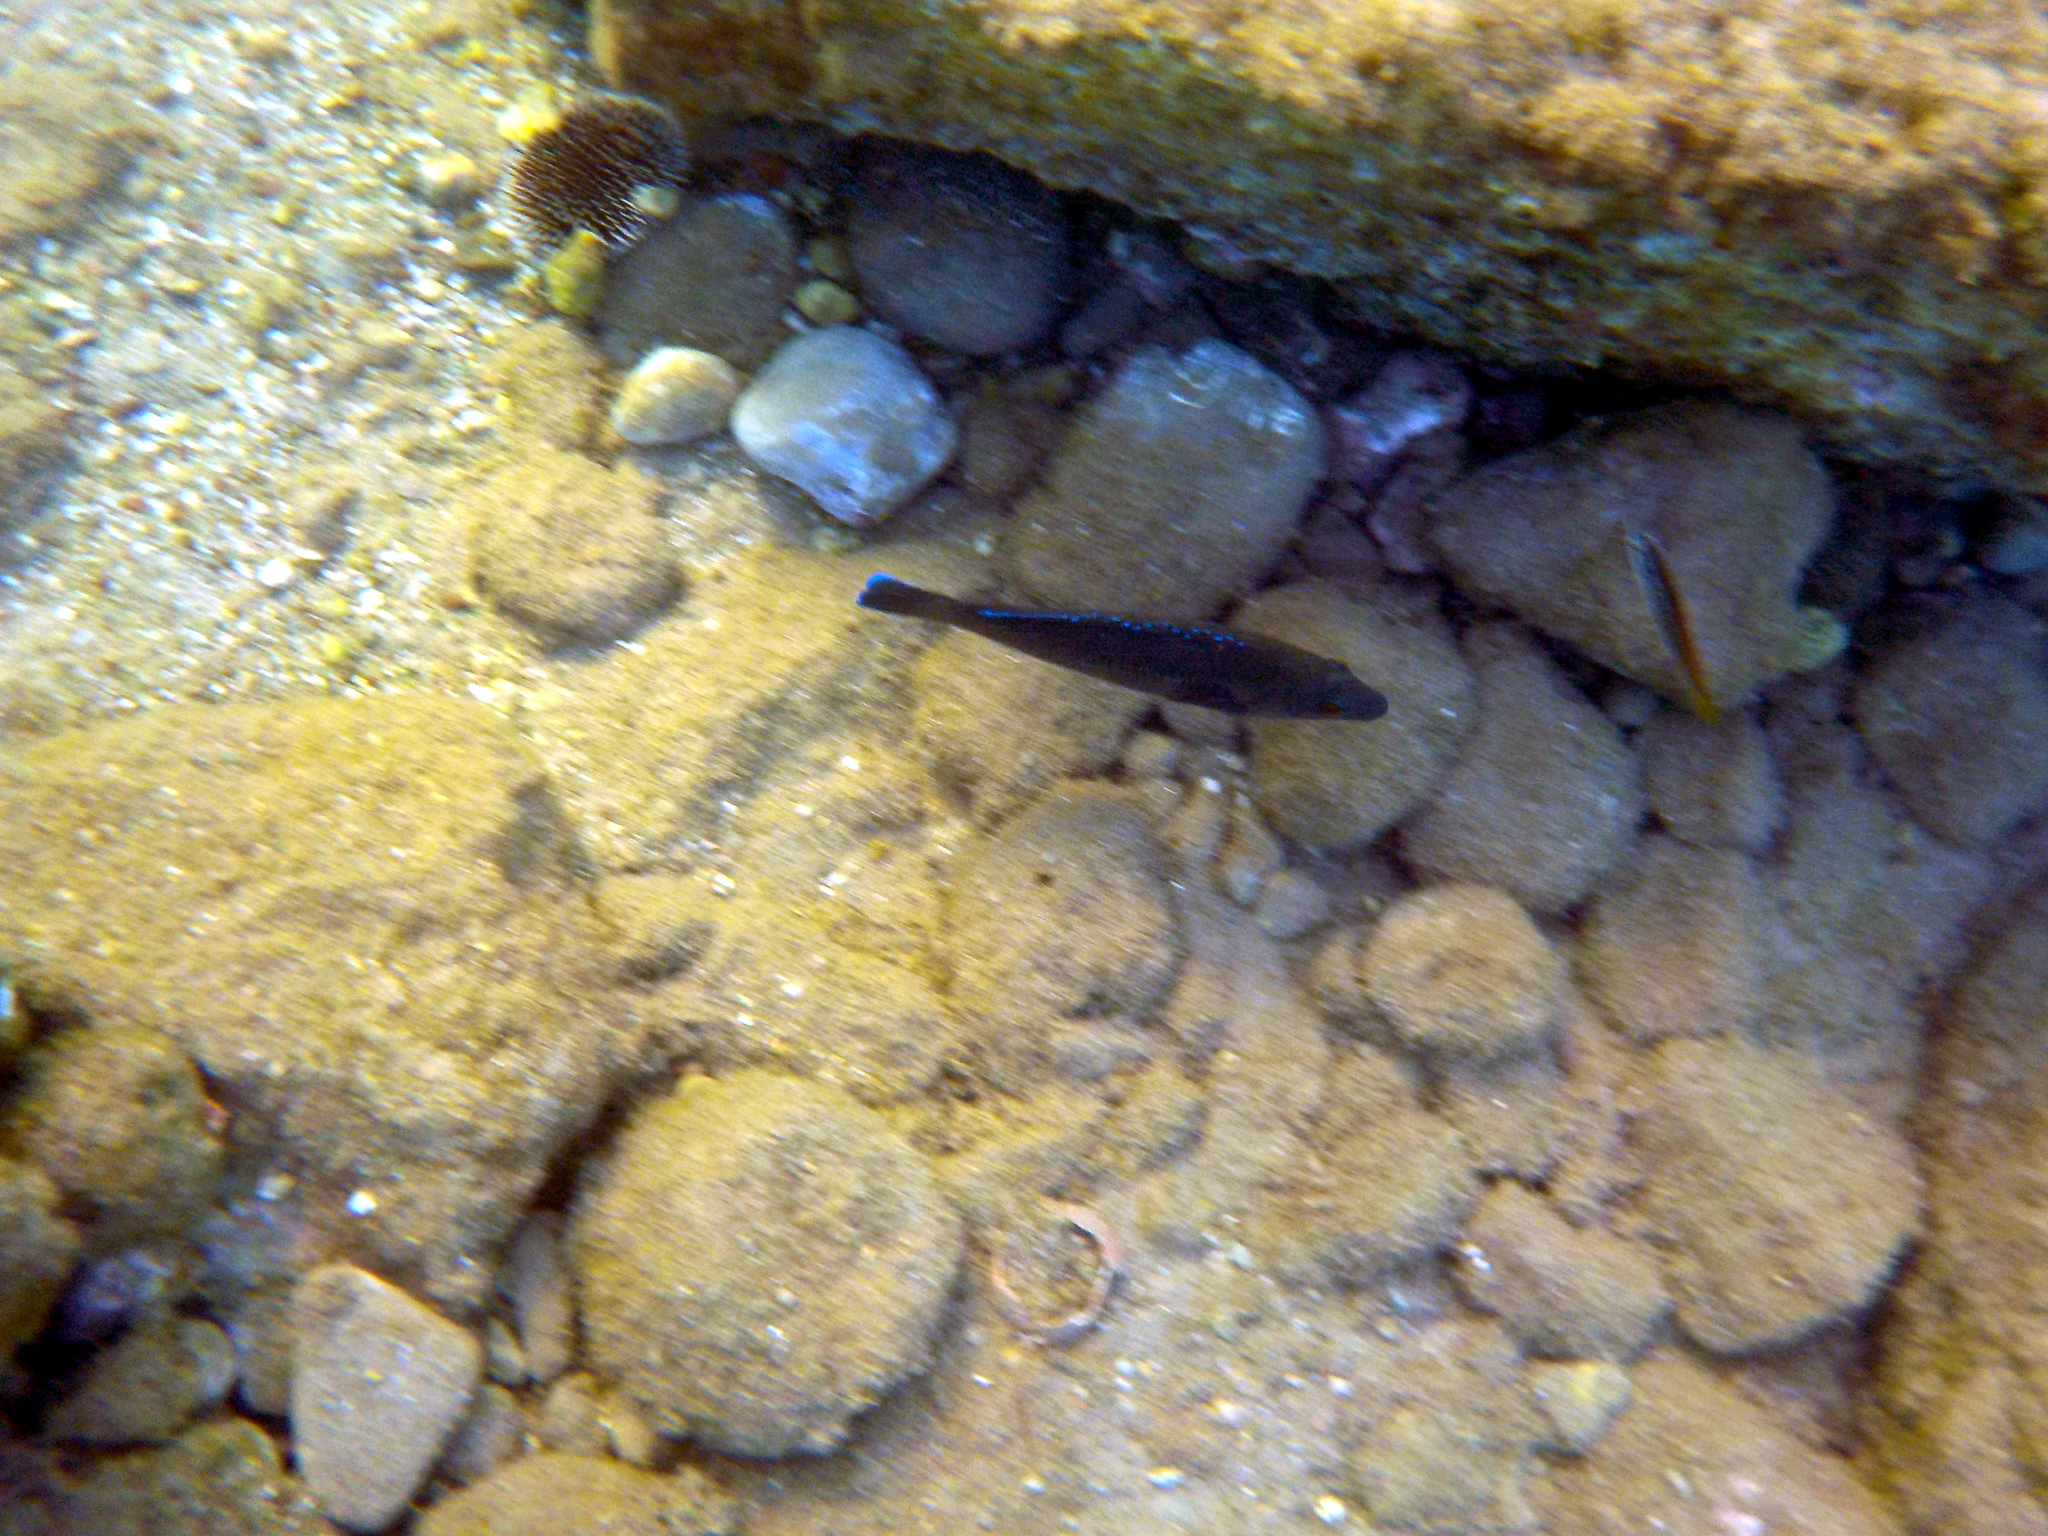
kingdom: Animalia
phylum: Chordata
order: Perciformes
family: Labridae
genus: Labrus
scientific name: Labrus
